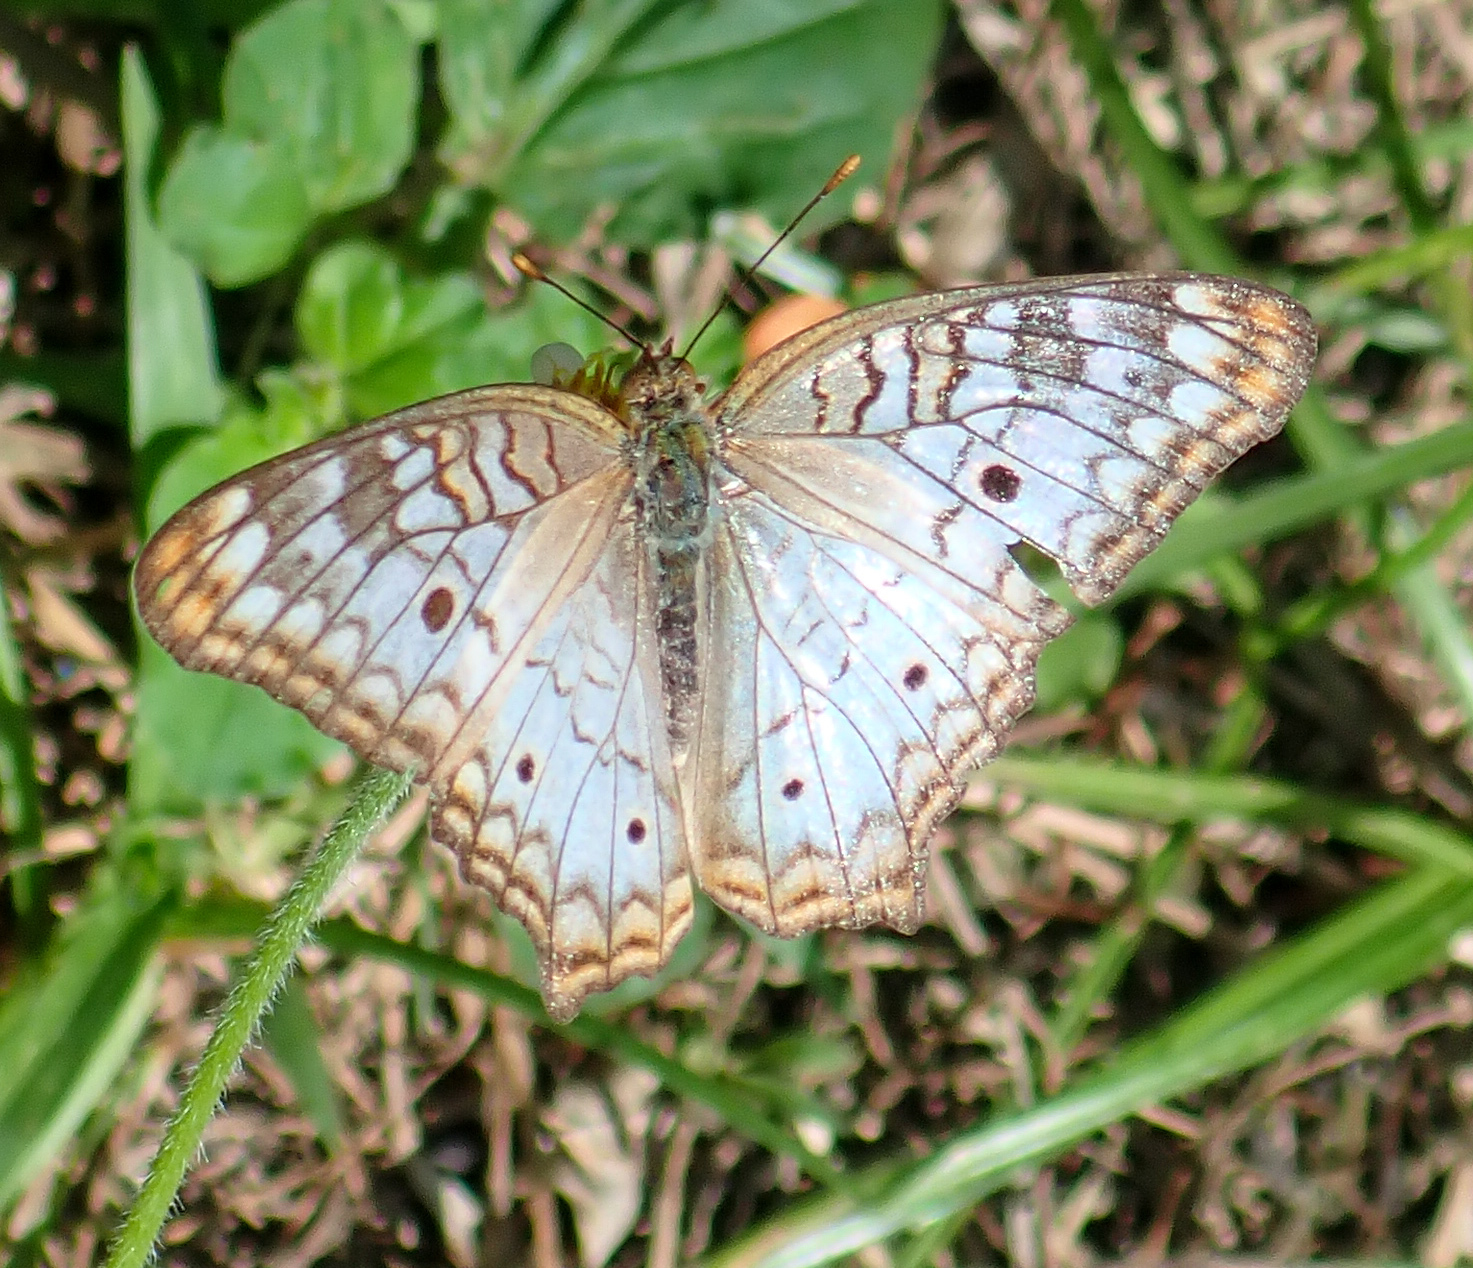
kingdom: Animalia
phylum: Arthropoda
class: Insecta
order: Lepidoptera
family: Nymphalidae
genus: Anartia
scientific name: Anartia jatrophae
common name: White peacock
